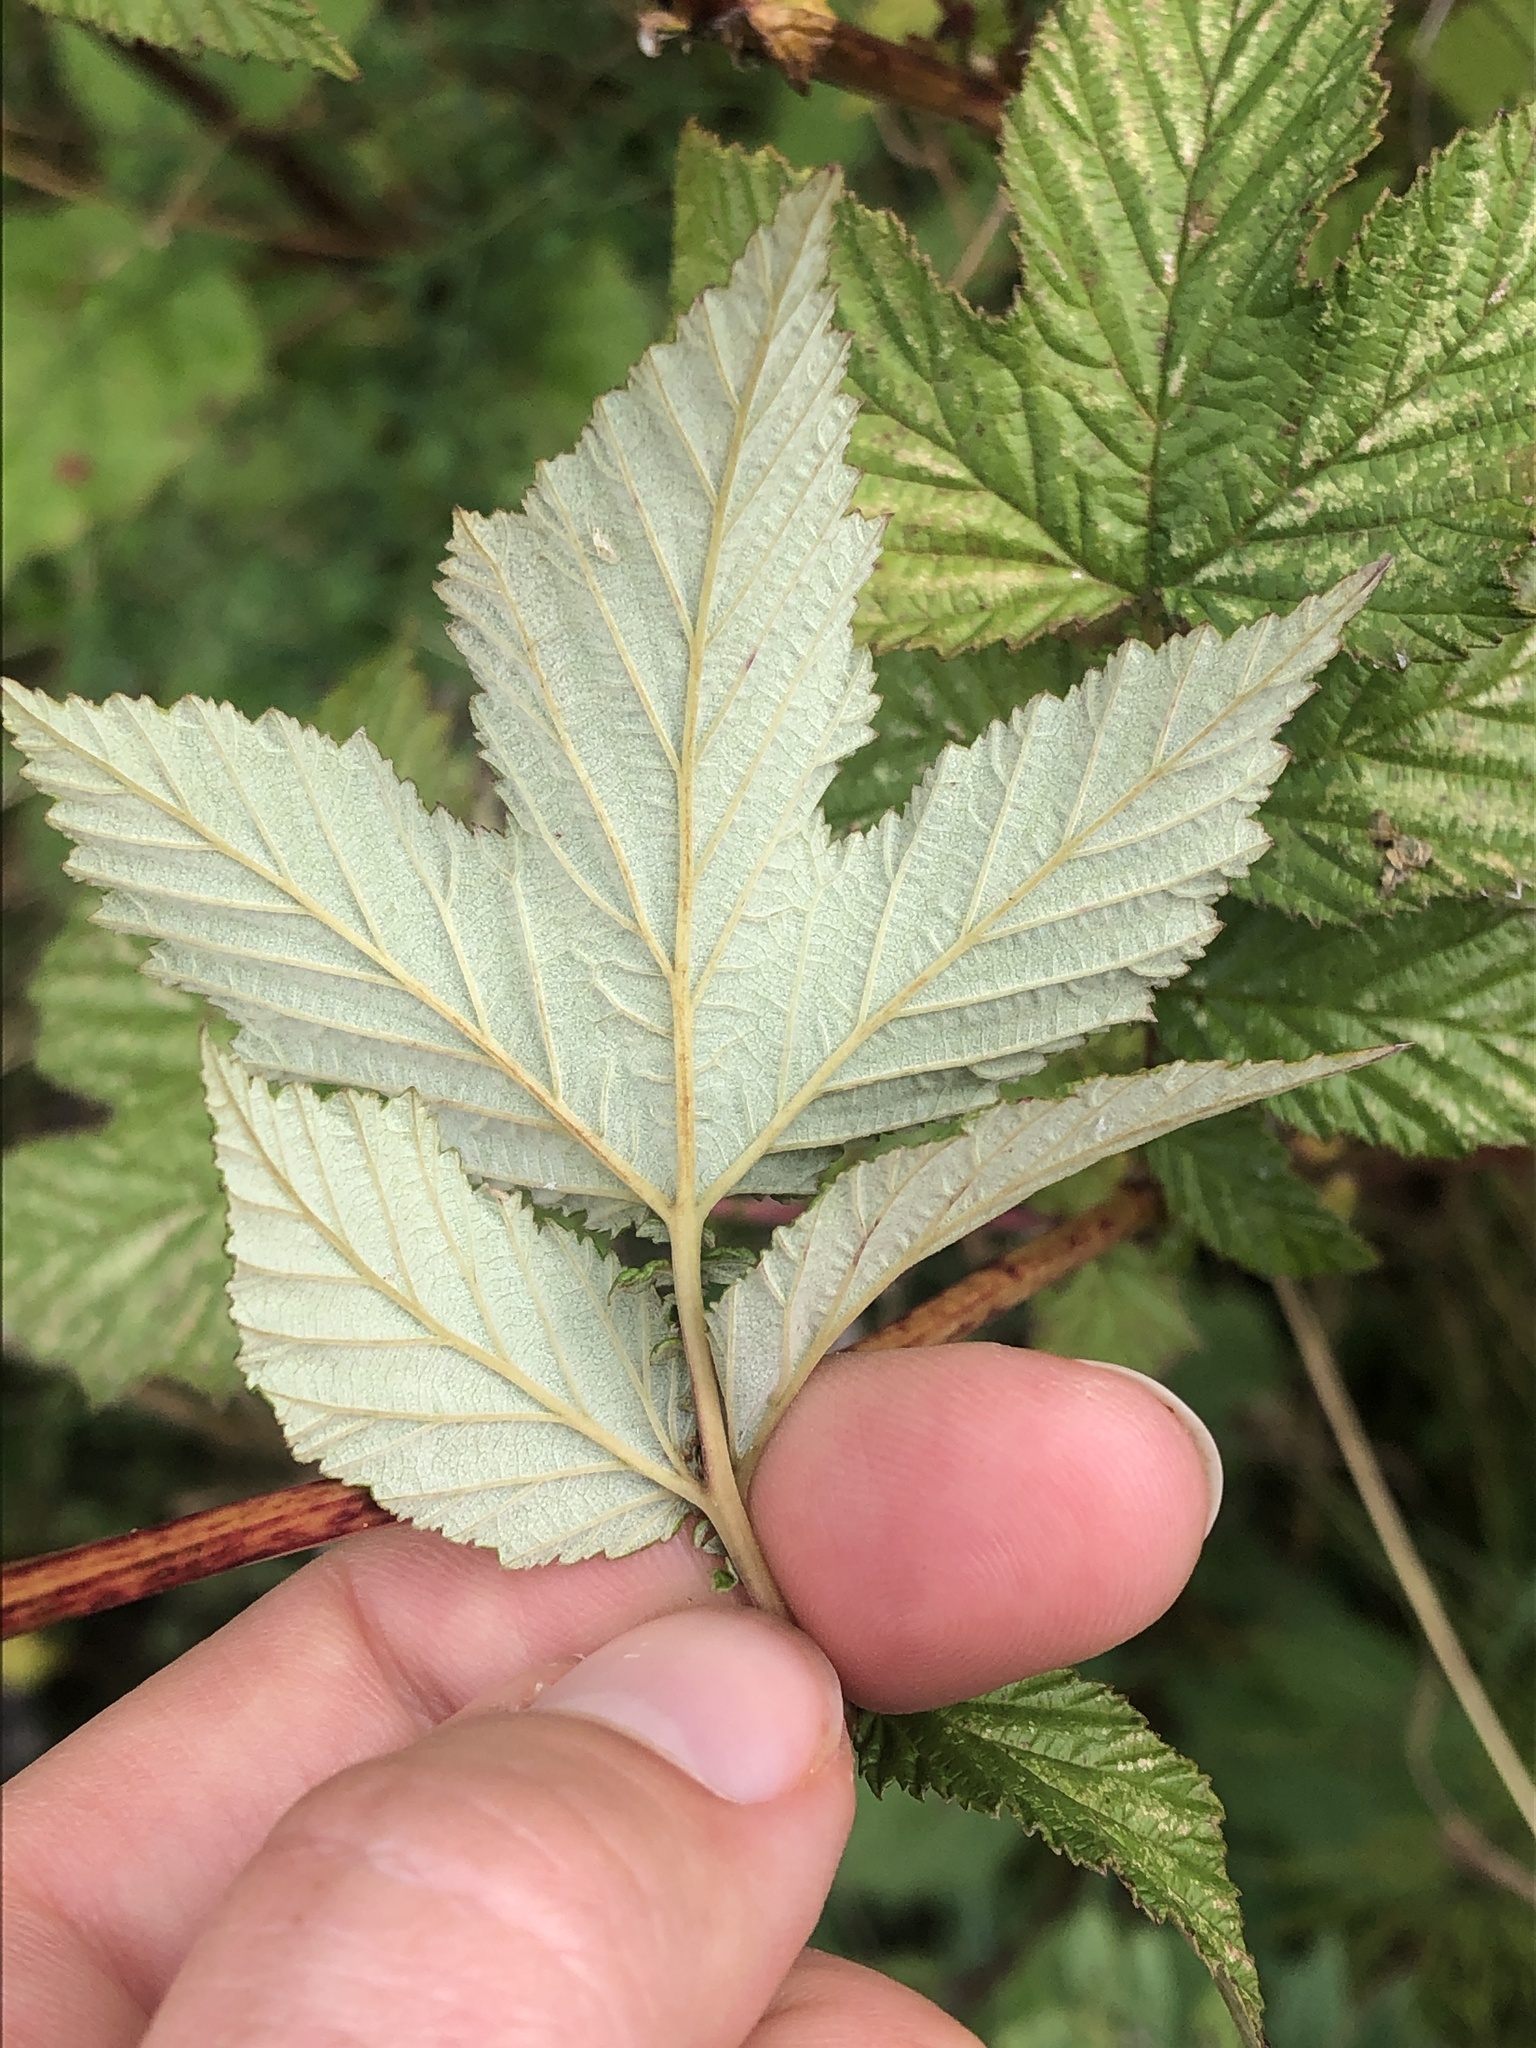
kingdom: Plantae
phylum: Tracheophyta
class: Magnoliopsida
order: Rosales
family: Rosaceae
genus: Filipendula
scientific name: Filipendula ulmaria
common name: Meadowsweet
